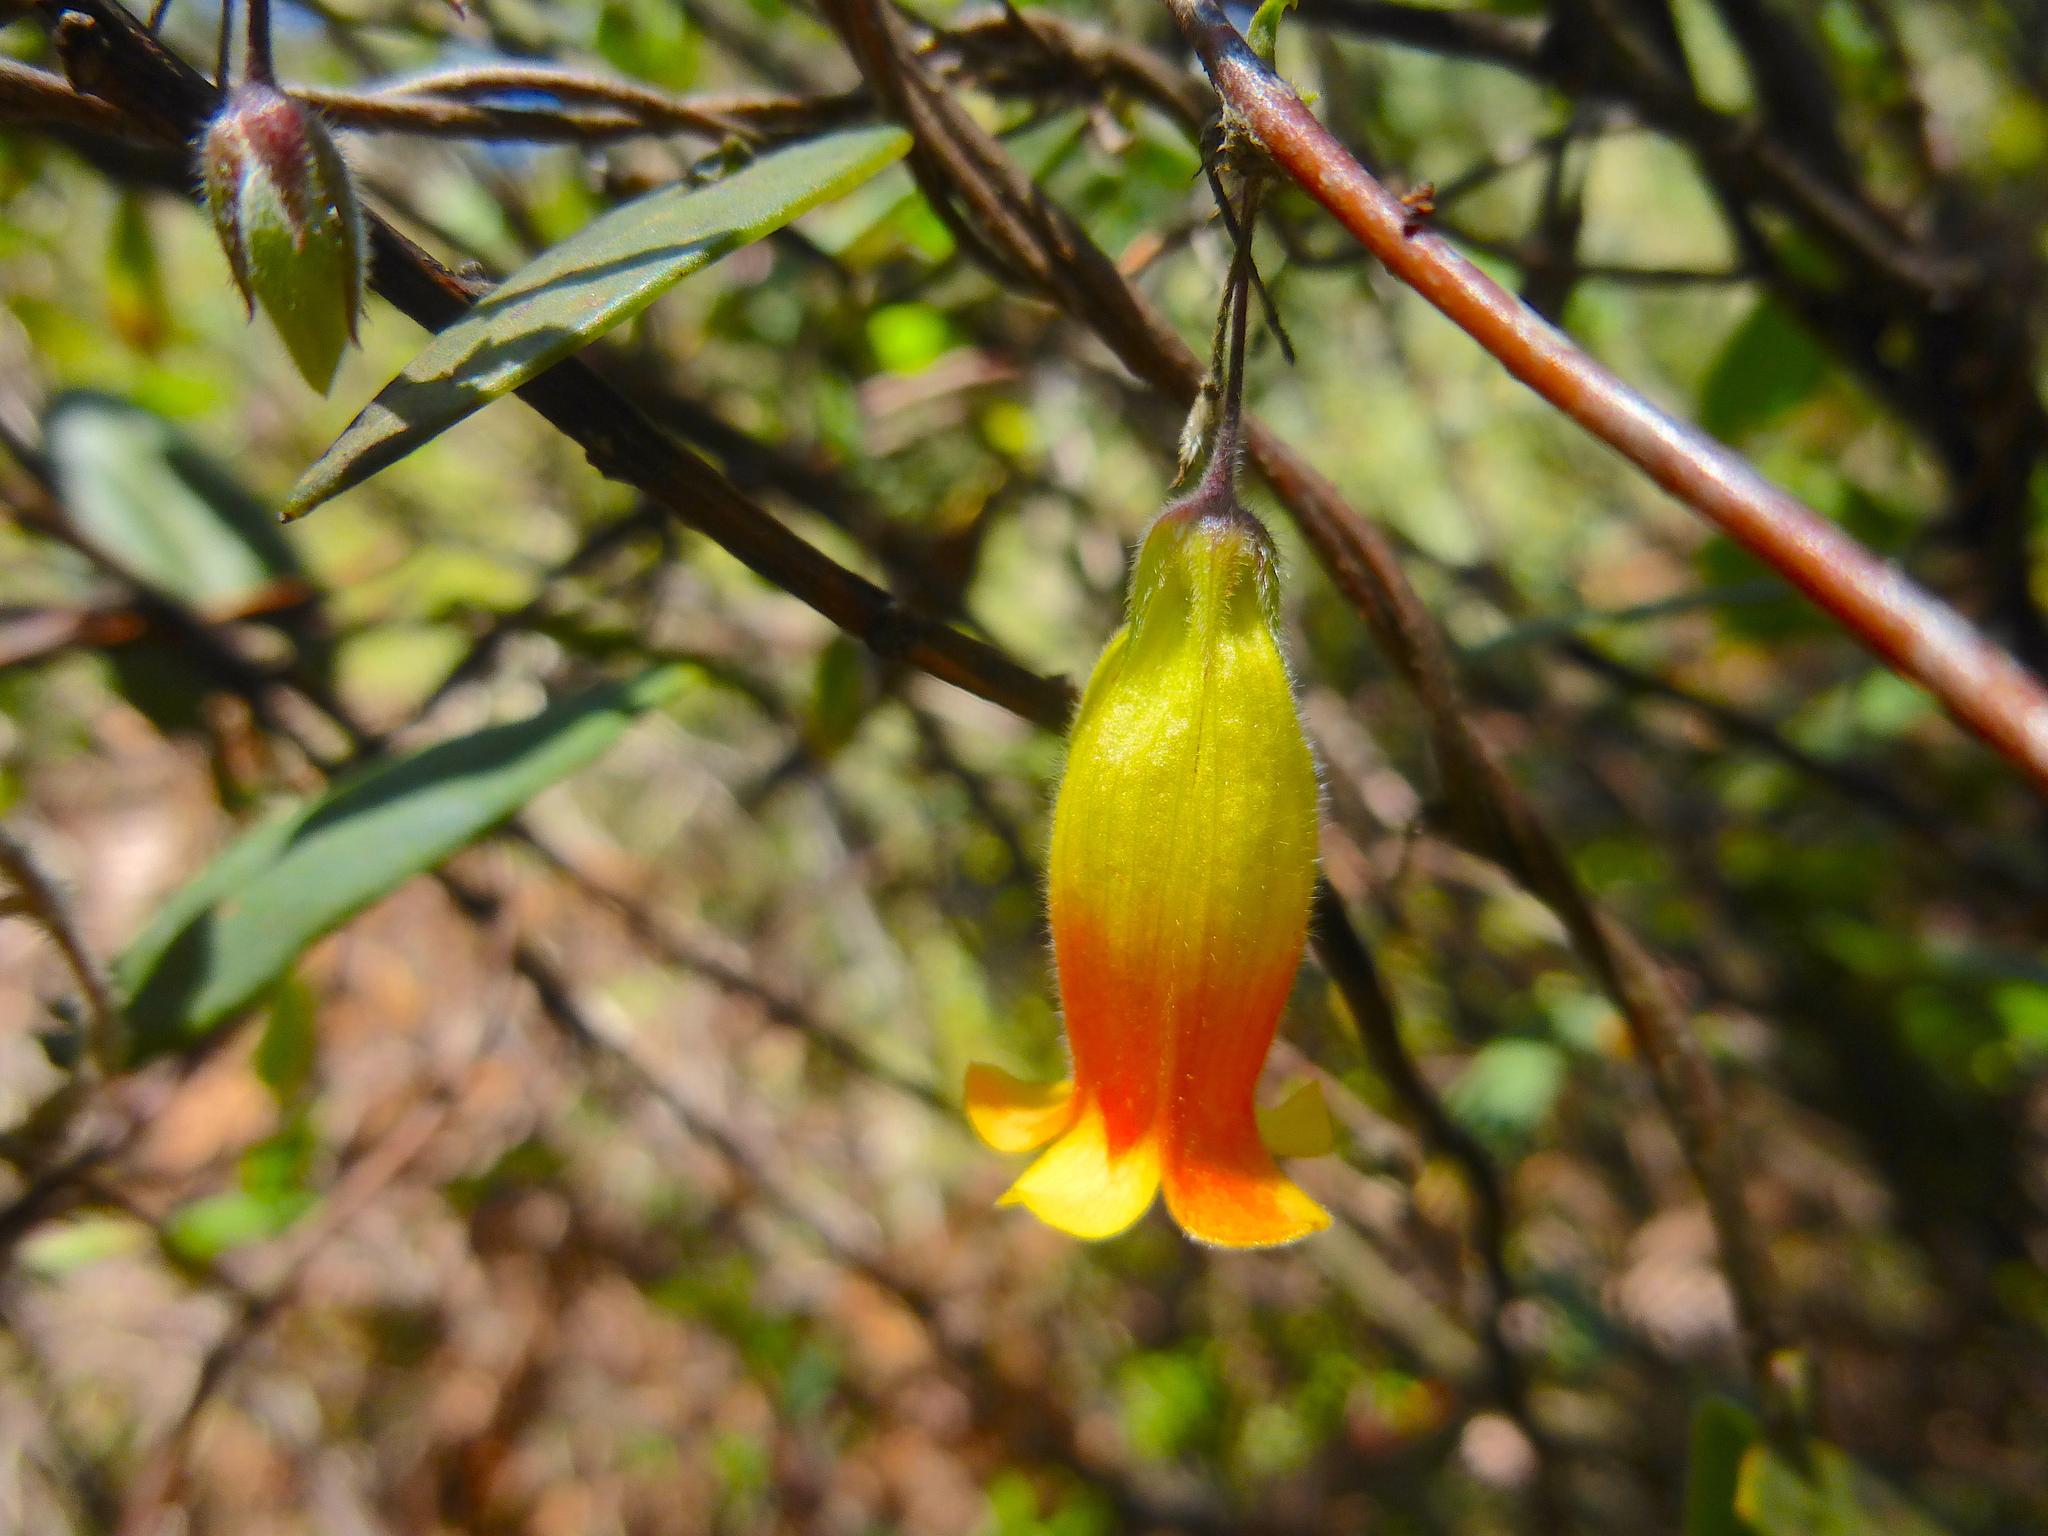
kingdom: Plantae
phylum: Tracheophyta
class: Magnoliopsida
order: Apiales
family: Pittosporaceae
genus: Marianthus
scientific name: Marianthus bignoniaceus
